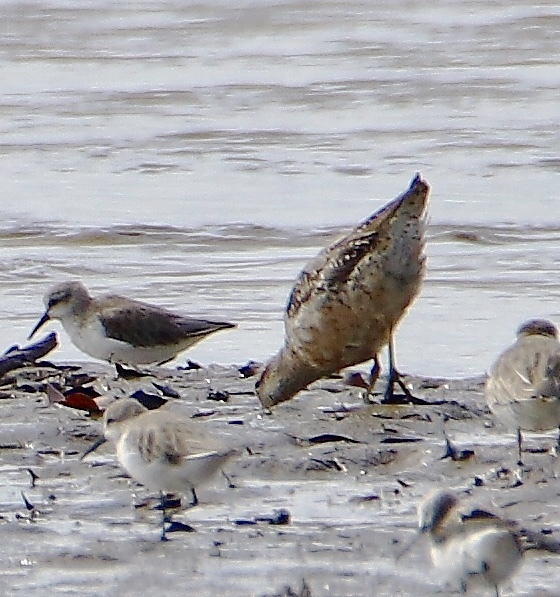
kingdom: Animalia
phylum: Chordata
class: Aves
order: Charadriiformes
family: Scolopacidae
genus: Calidris
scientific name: Calidris canutus
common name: Red knot
